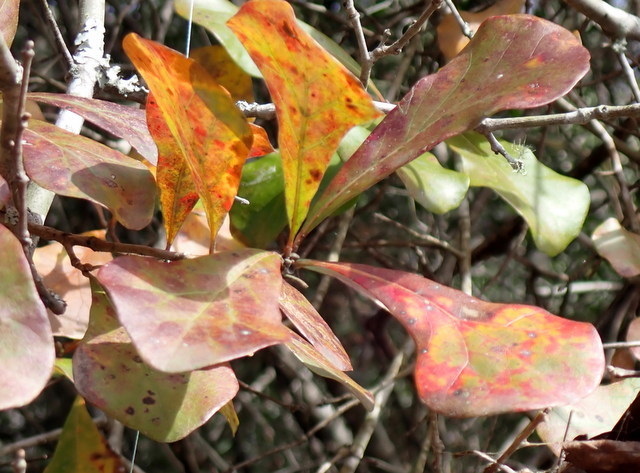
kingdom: Plantae
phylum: Tracheophyta
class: Magnoliopsida
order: Fagales
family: Fagaceae
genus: Quercus
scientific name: Quercus nigra
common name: Water oak
